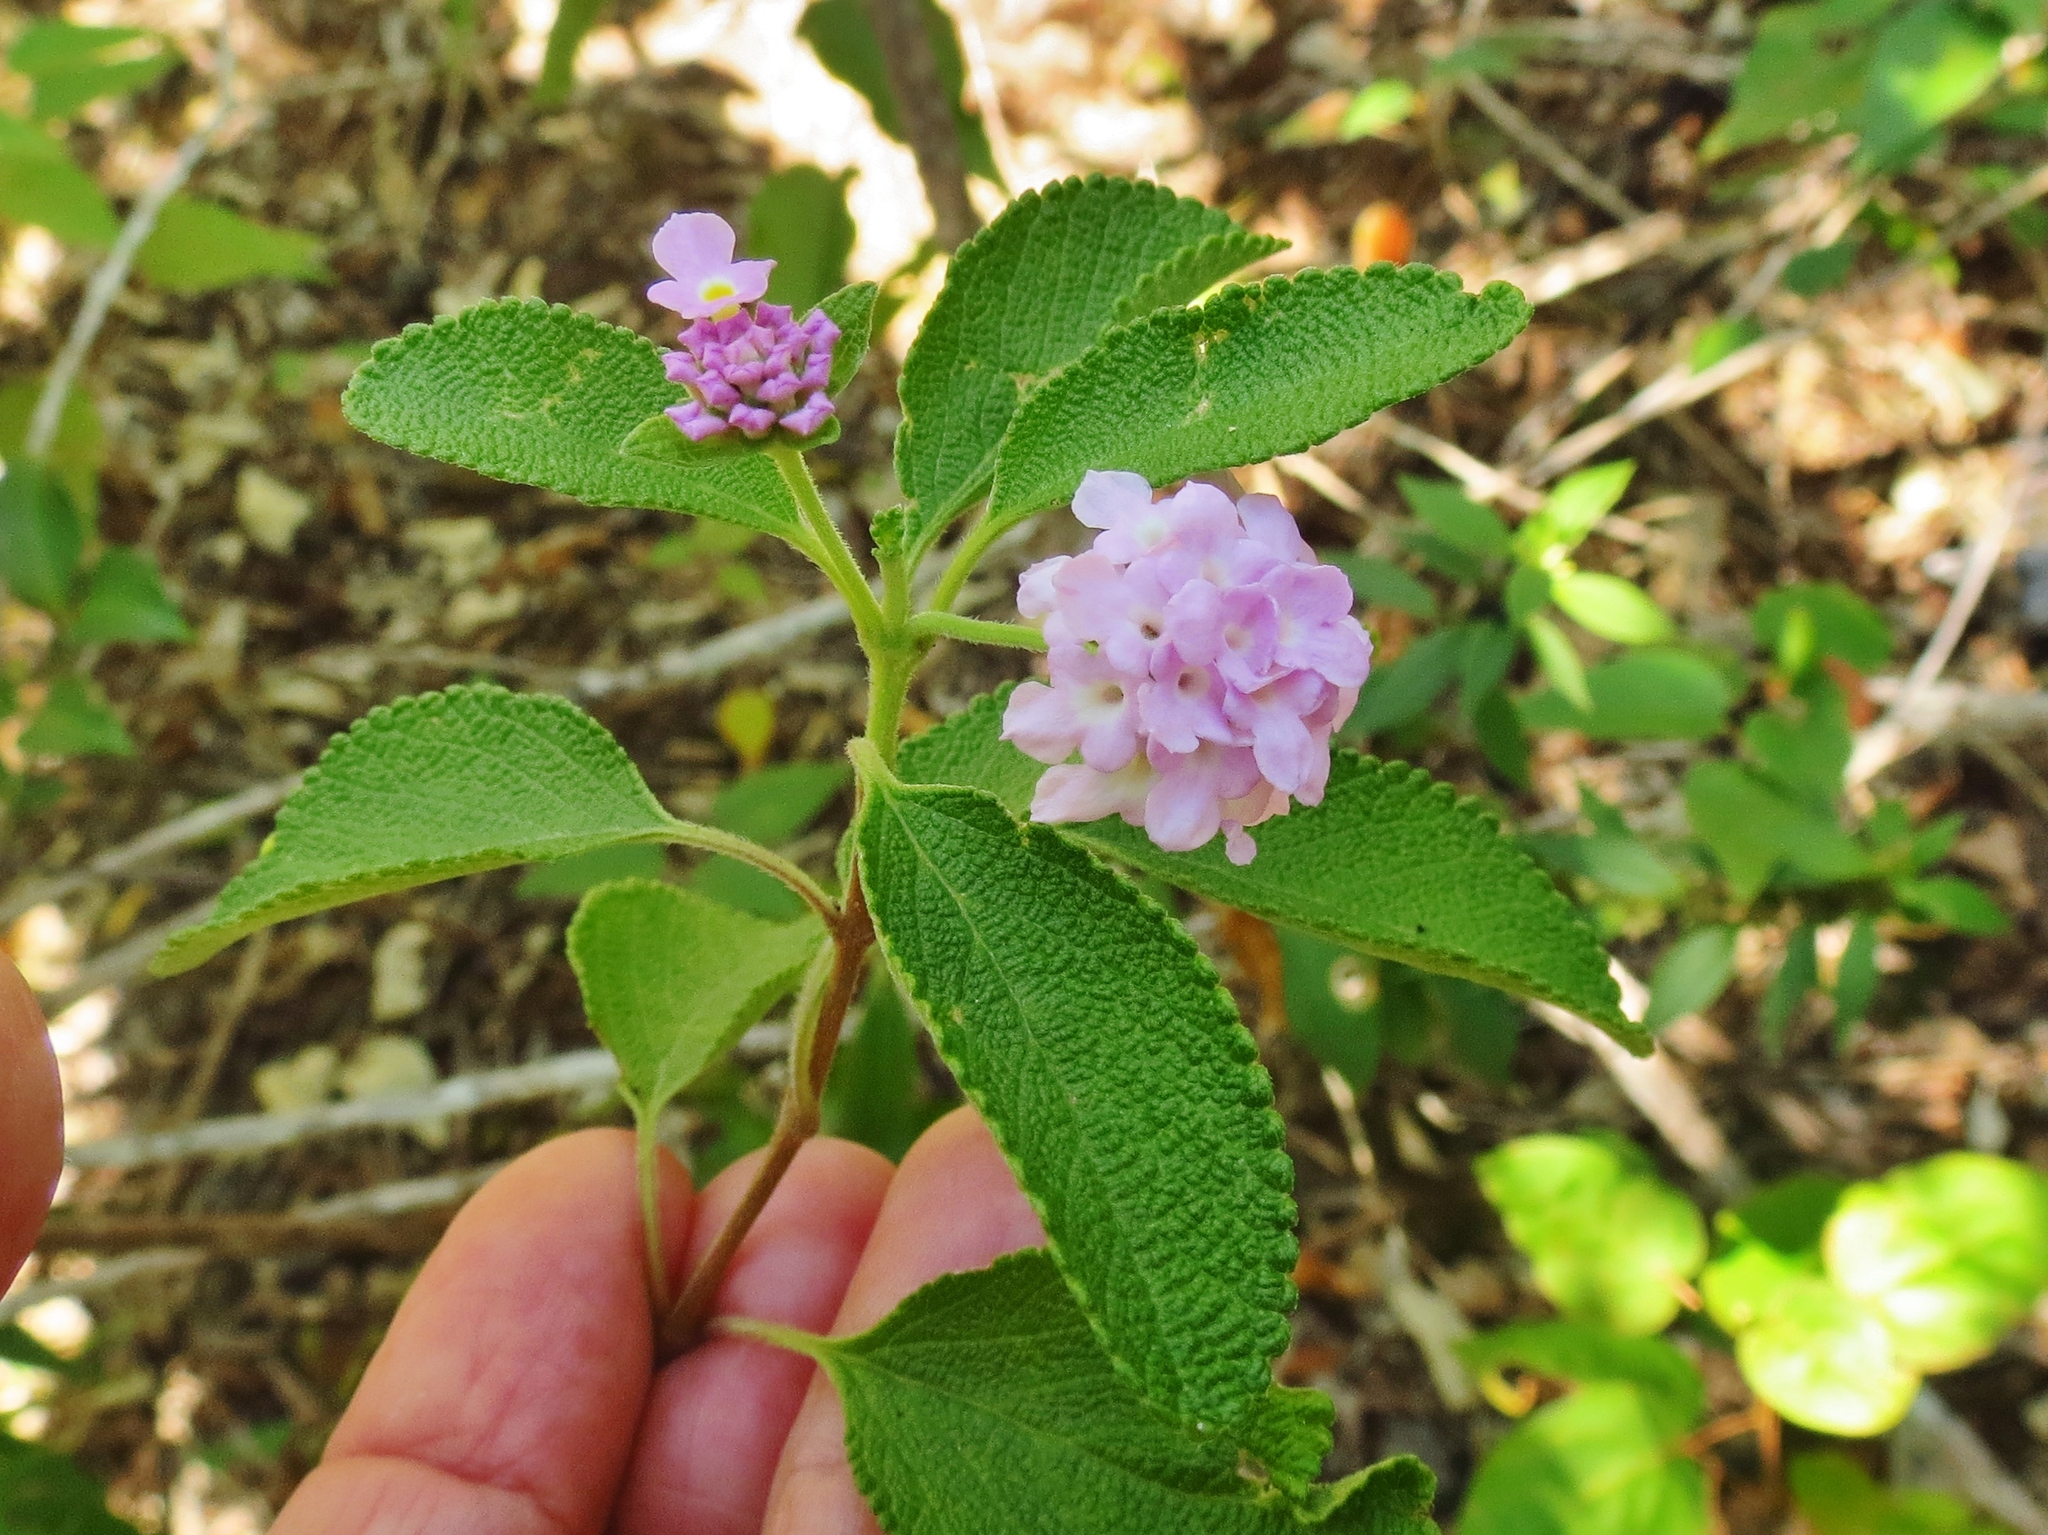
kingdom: Plantae
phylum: Tracheophyta
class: Magnoliopsida
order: Lamiales
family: Verbenaceae
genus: Lantana
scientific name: Lantana involucrata
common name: Black sage
